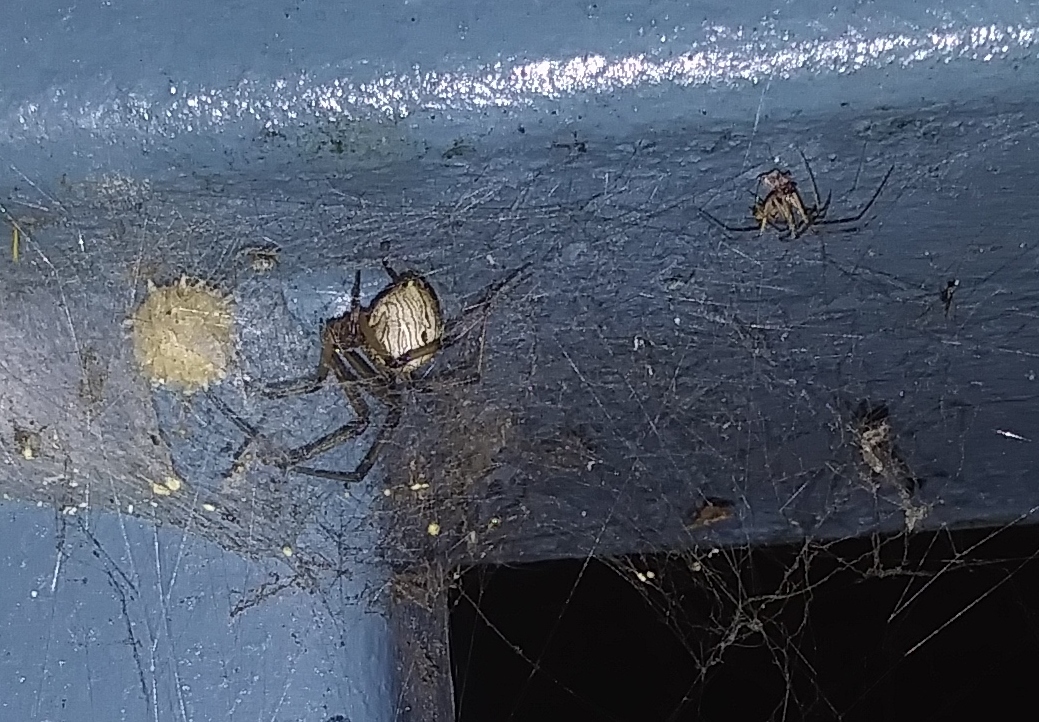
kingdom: Animalia
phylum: Arthropoda
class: Arachnida
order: Araneae
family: Theridiidae
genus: Latrodectus
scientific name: Latrodectus geometricus
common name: Brown widow spider
